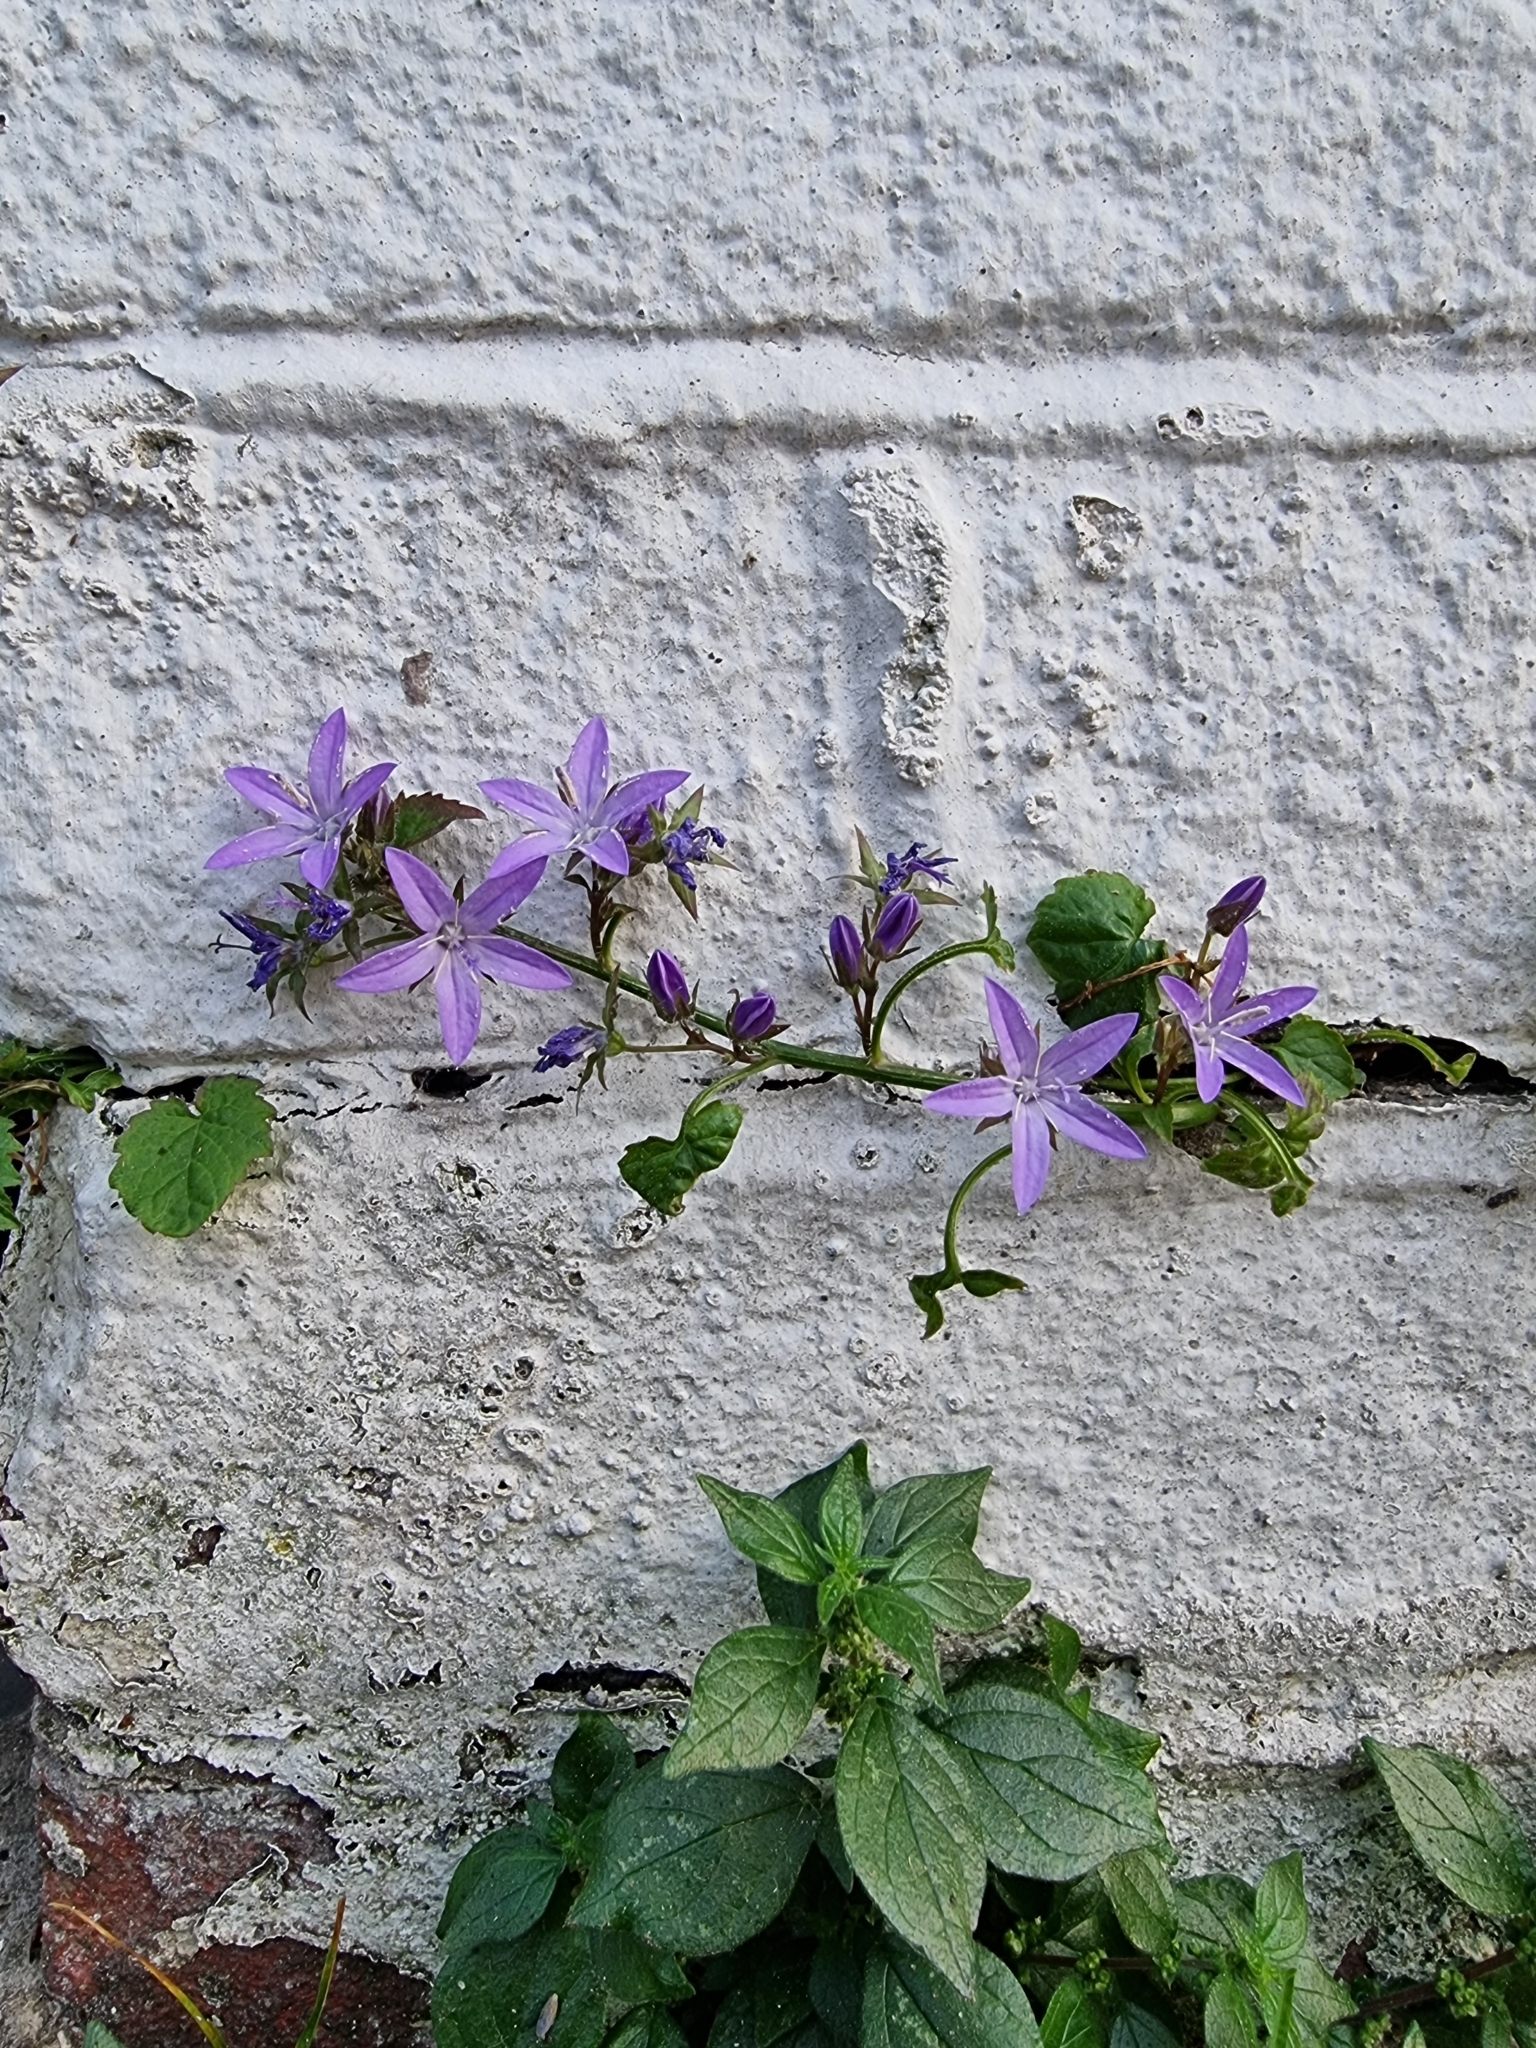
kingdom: Plantae
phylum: Tracheophyta
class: Magnoliopsida
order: Asterales
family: Campanulaceae
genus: Campanula
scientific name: Campanula poscharskyana
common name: Trailing bellflower
